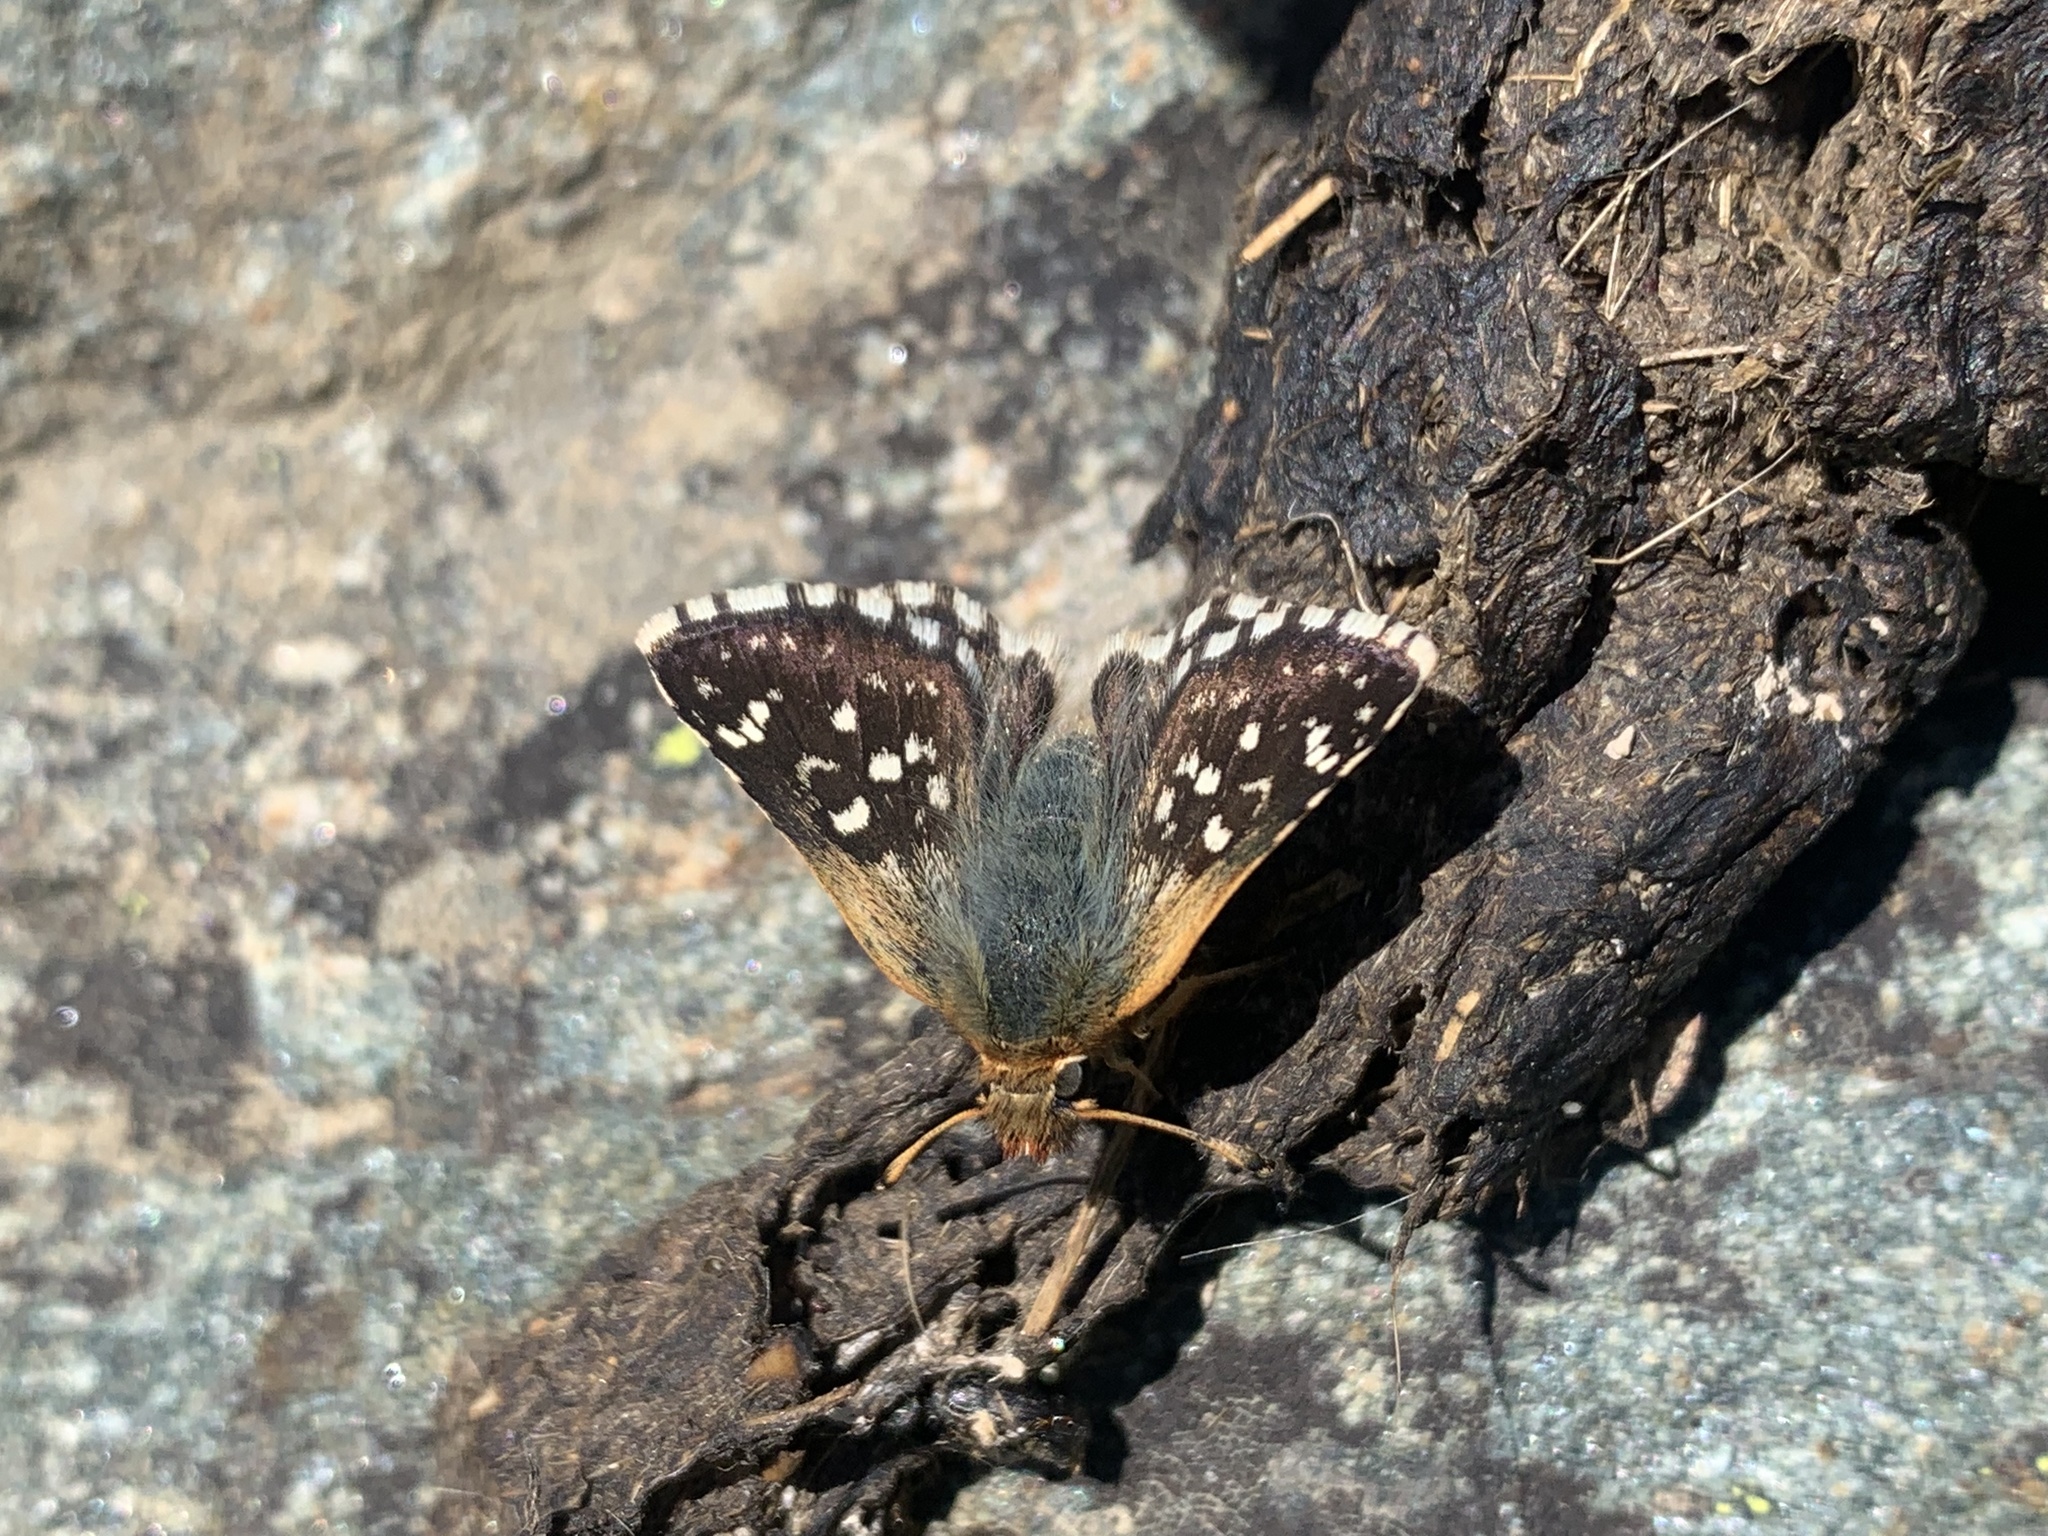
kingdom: Animalia
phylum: Arthropoda
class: Insecta
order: Lepidoptera
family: Hesperiidae
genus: Spialia
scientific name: Spialia sertorius
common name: Red underwing skipper
